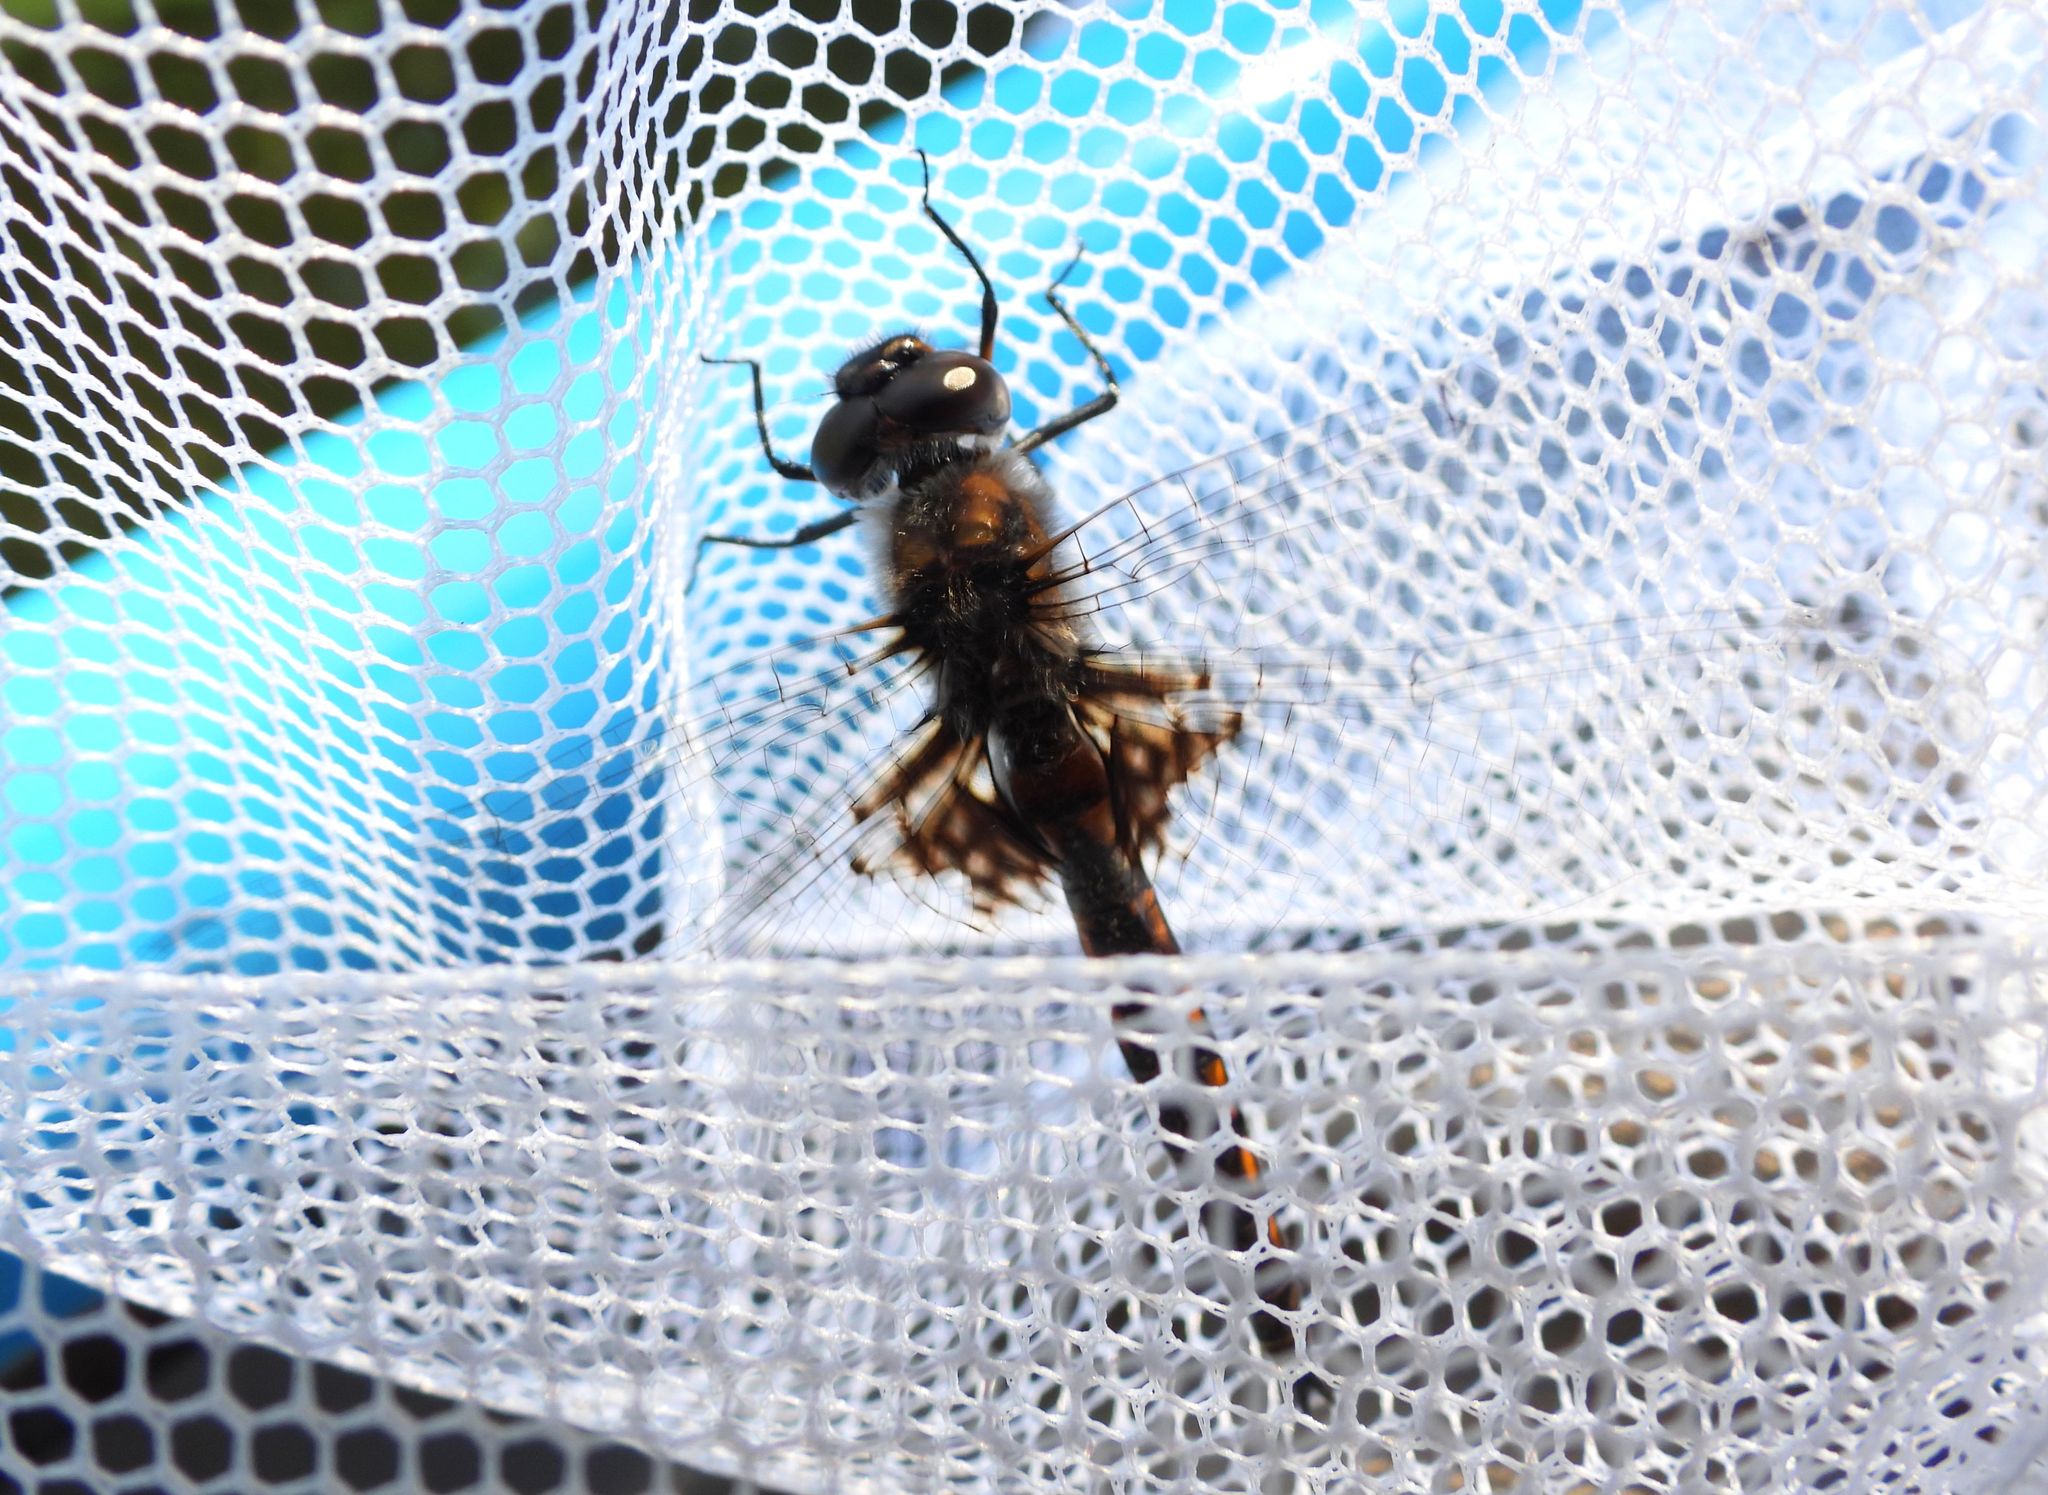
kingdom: Animalia
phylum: Arthropoda
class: Insecta
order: Odonata
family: Corduliidae
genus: Epitheca
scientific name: Epitheca cynosura
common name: Common baskettail
